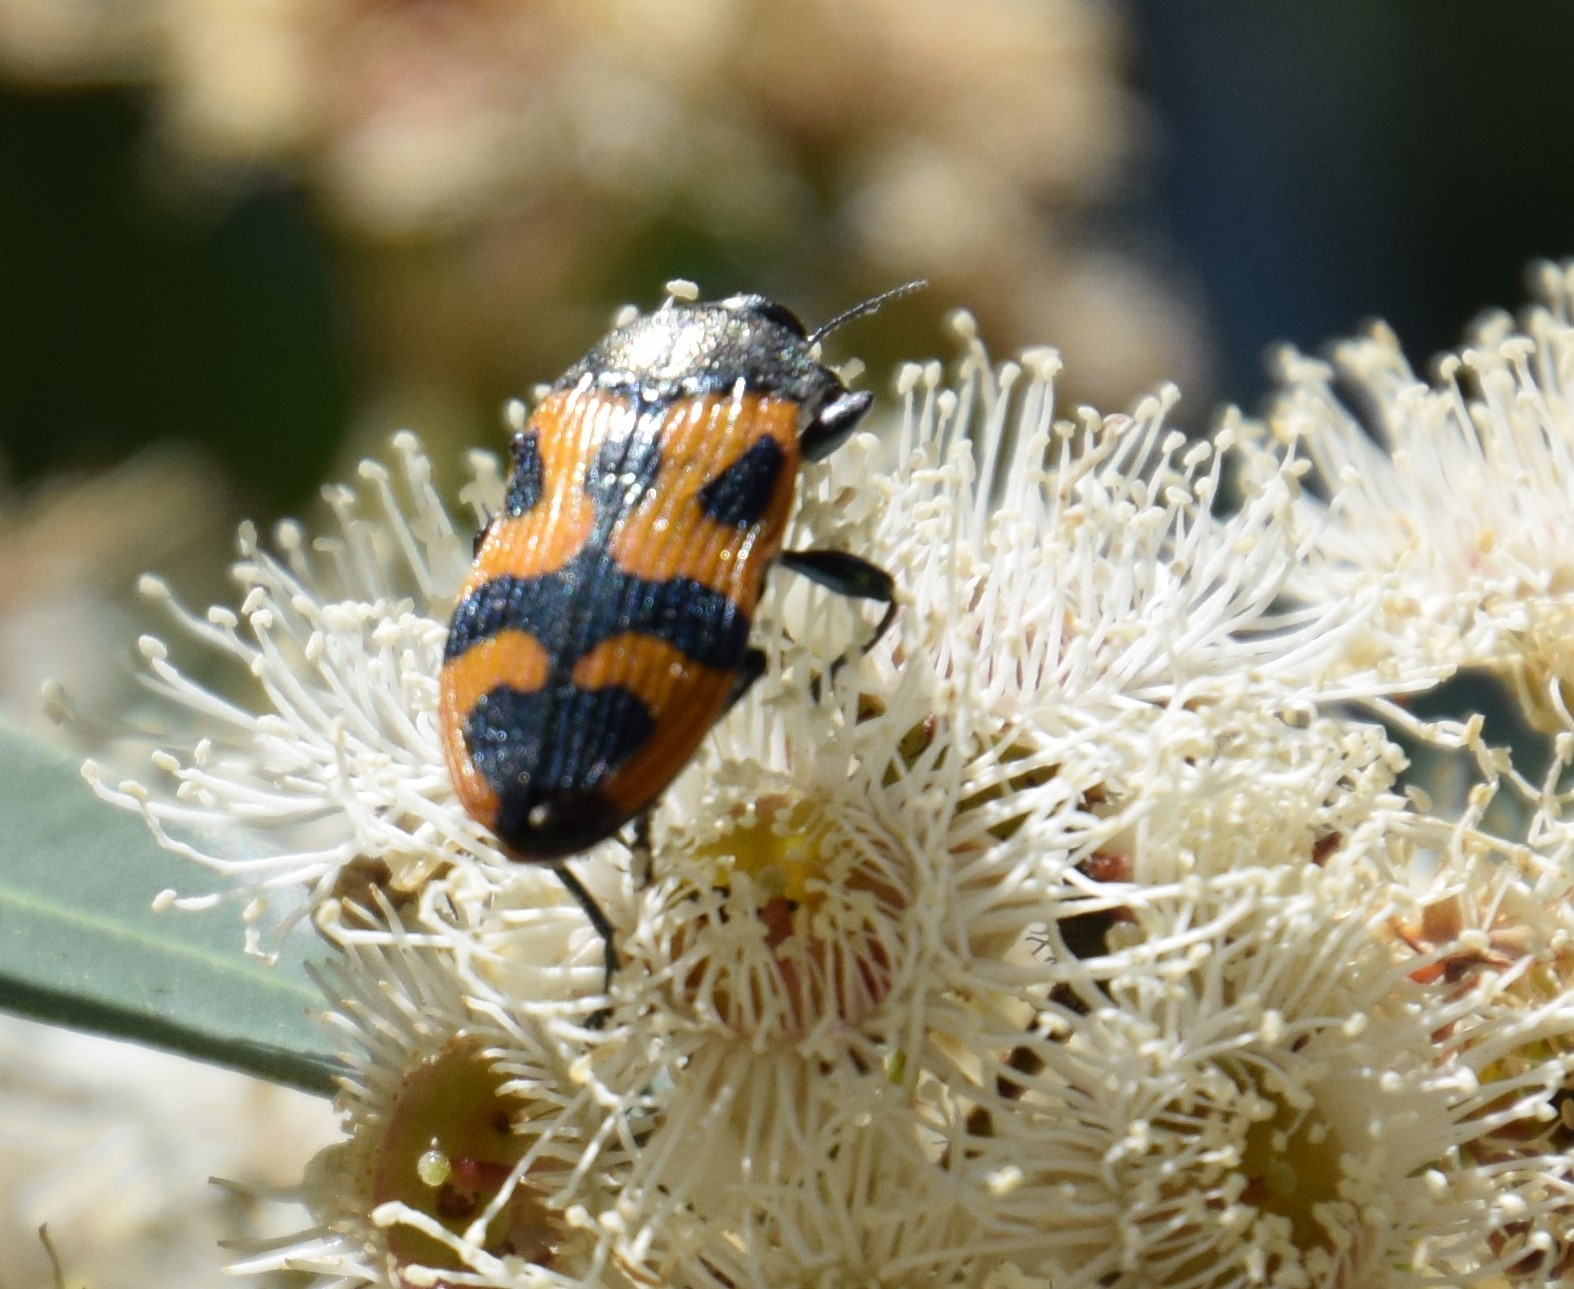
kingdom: Animalia
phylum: Arthropoda
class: Insecta
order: Coleoptera
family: Buprestidae
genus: Castiarina
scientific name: Castiarina undulata
